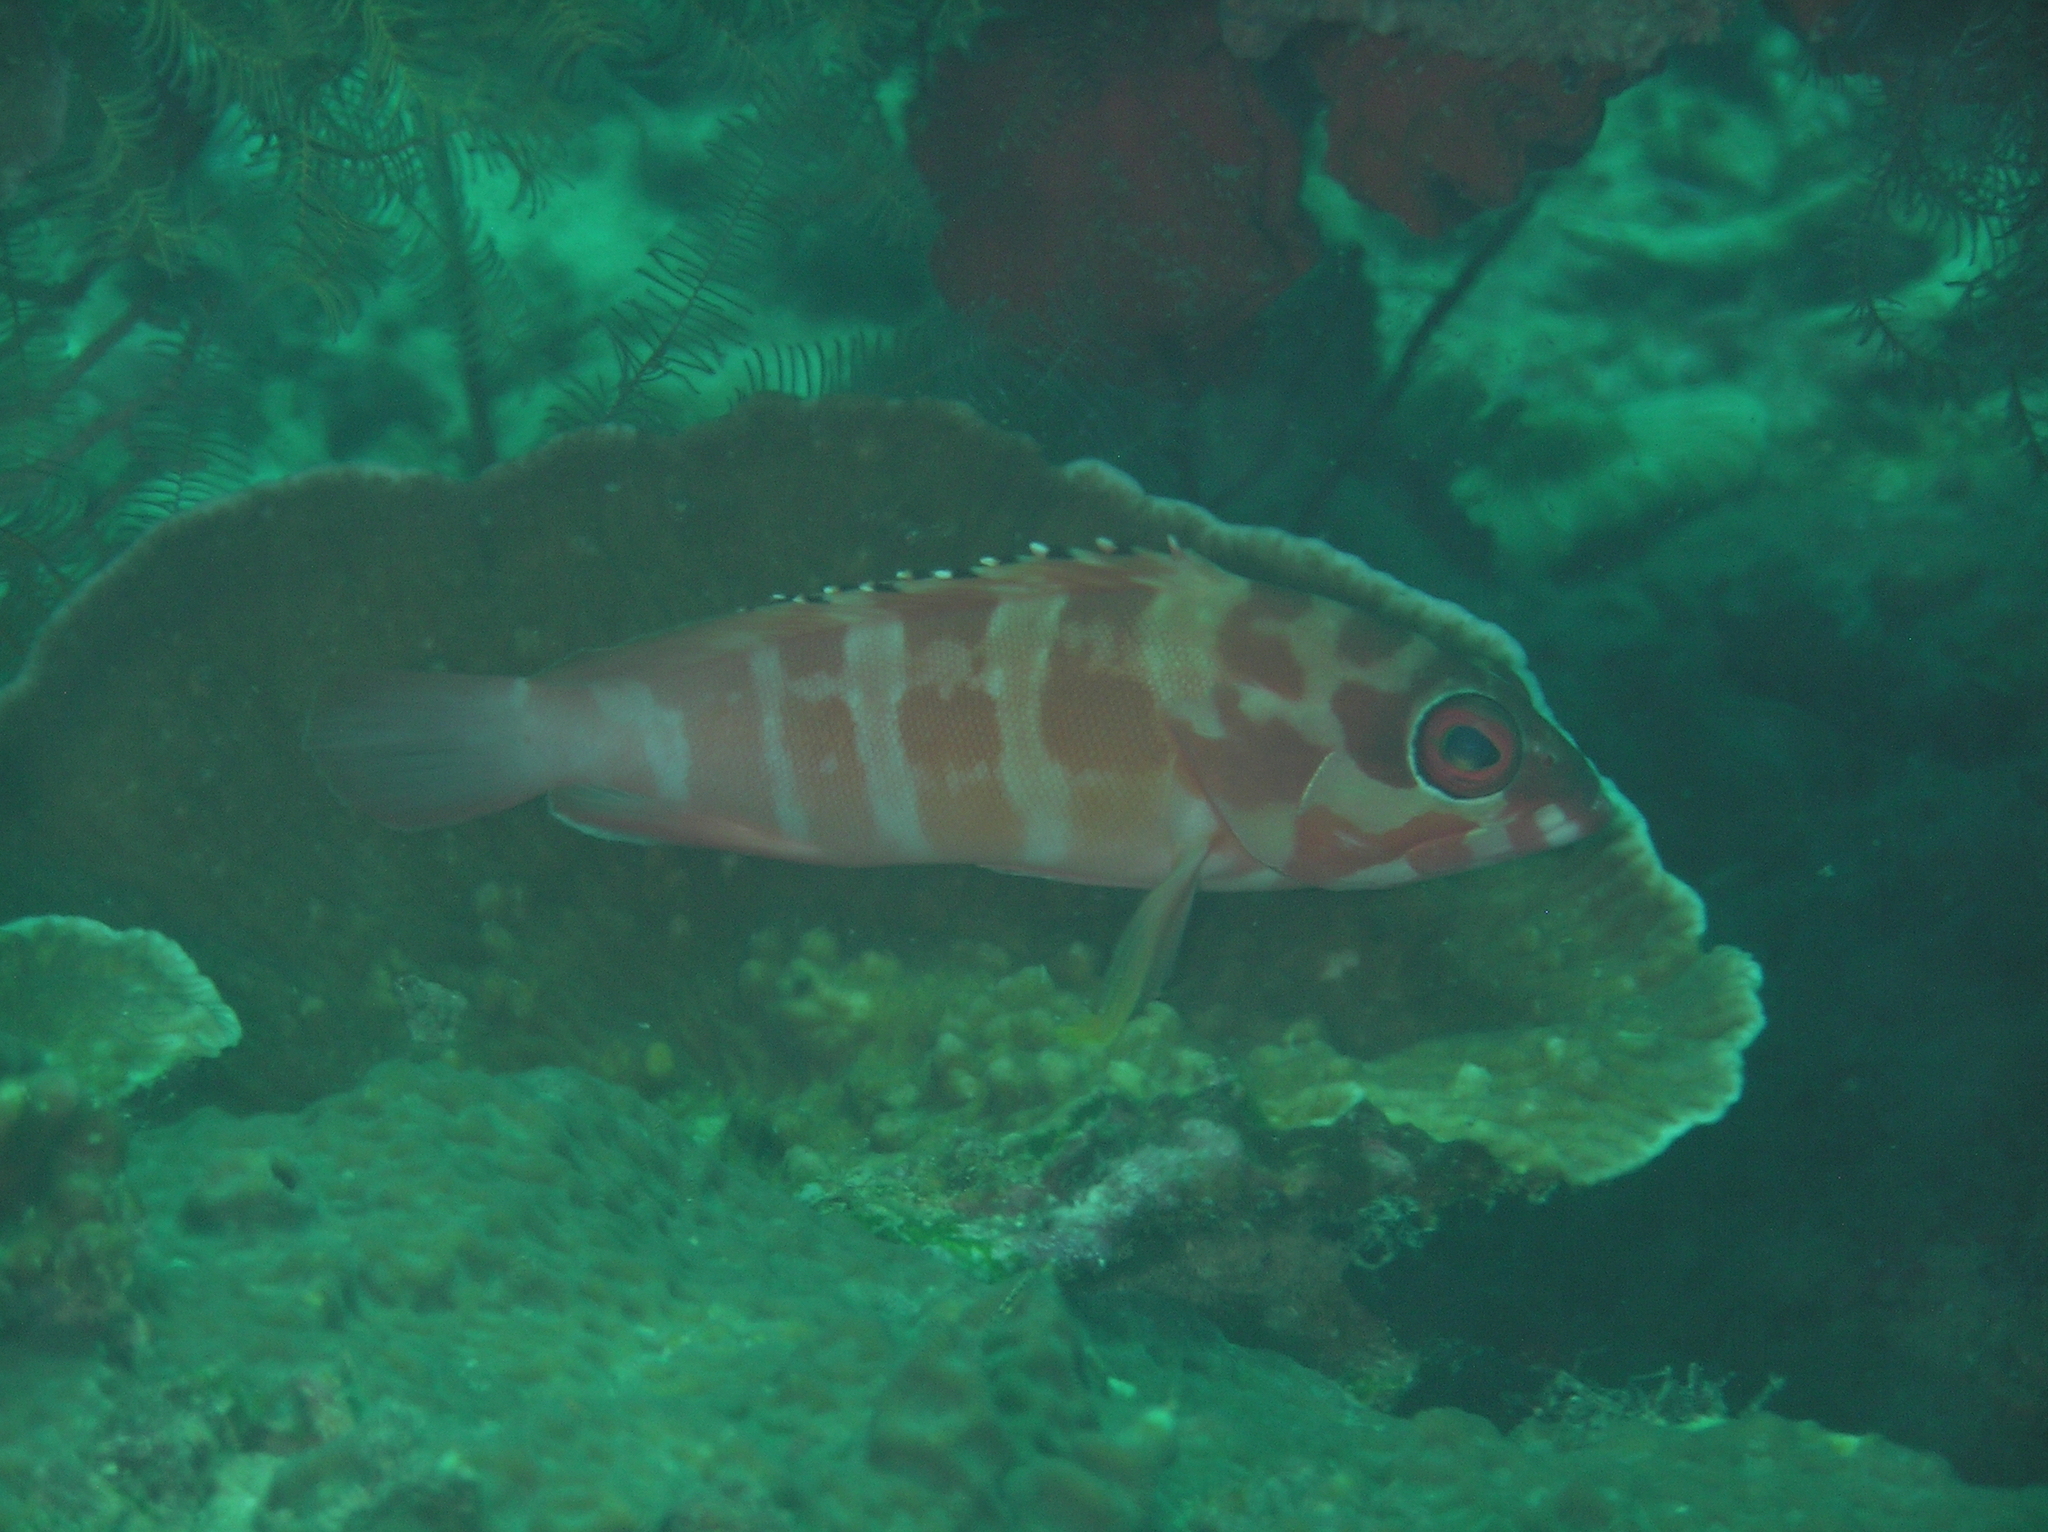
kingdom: Animalia
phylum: Chordata
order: Perciformes
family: Serranidae
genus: Epinephelus
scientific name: Epinephelus fasciatus
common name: Blacktip grouper
